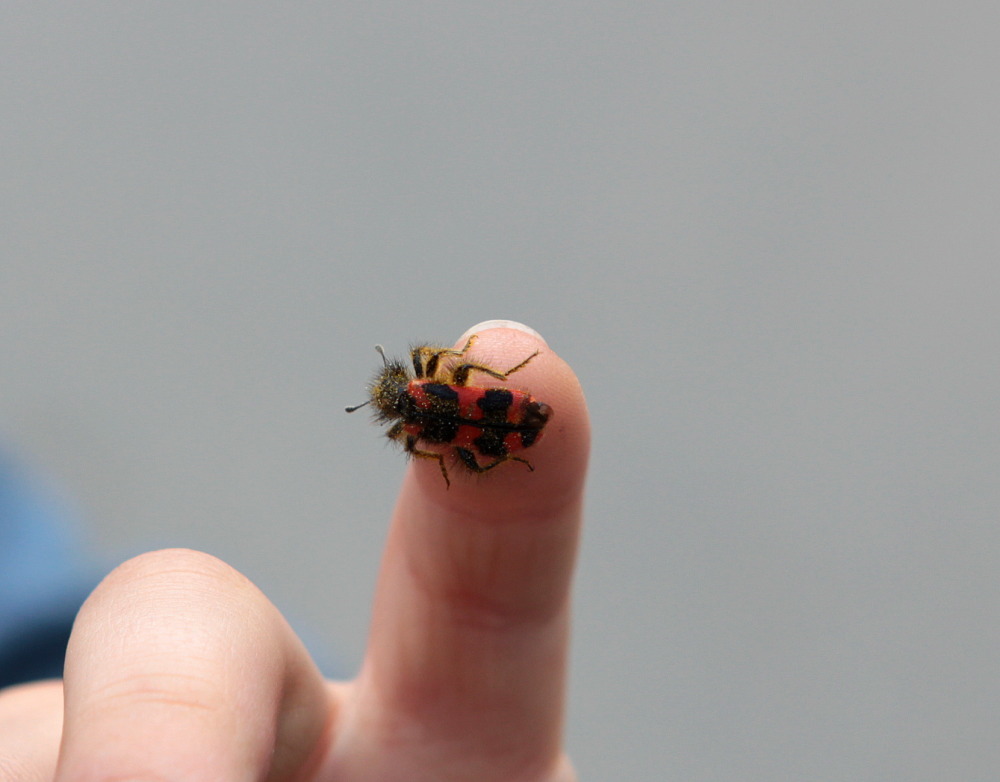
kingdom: Animalia
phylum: Arthropoda
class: Insecta
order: Coleoptera
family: Cleridae
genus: Trichodes
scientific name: Trichodes alvearius
